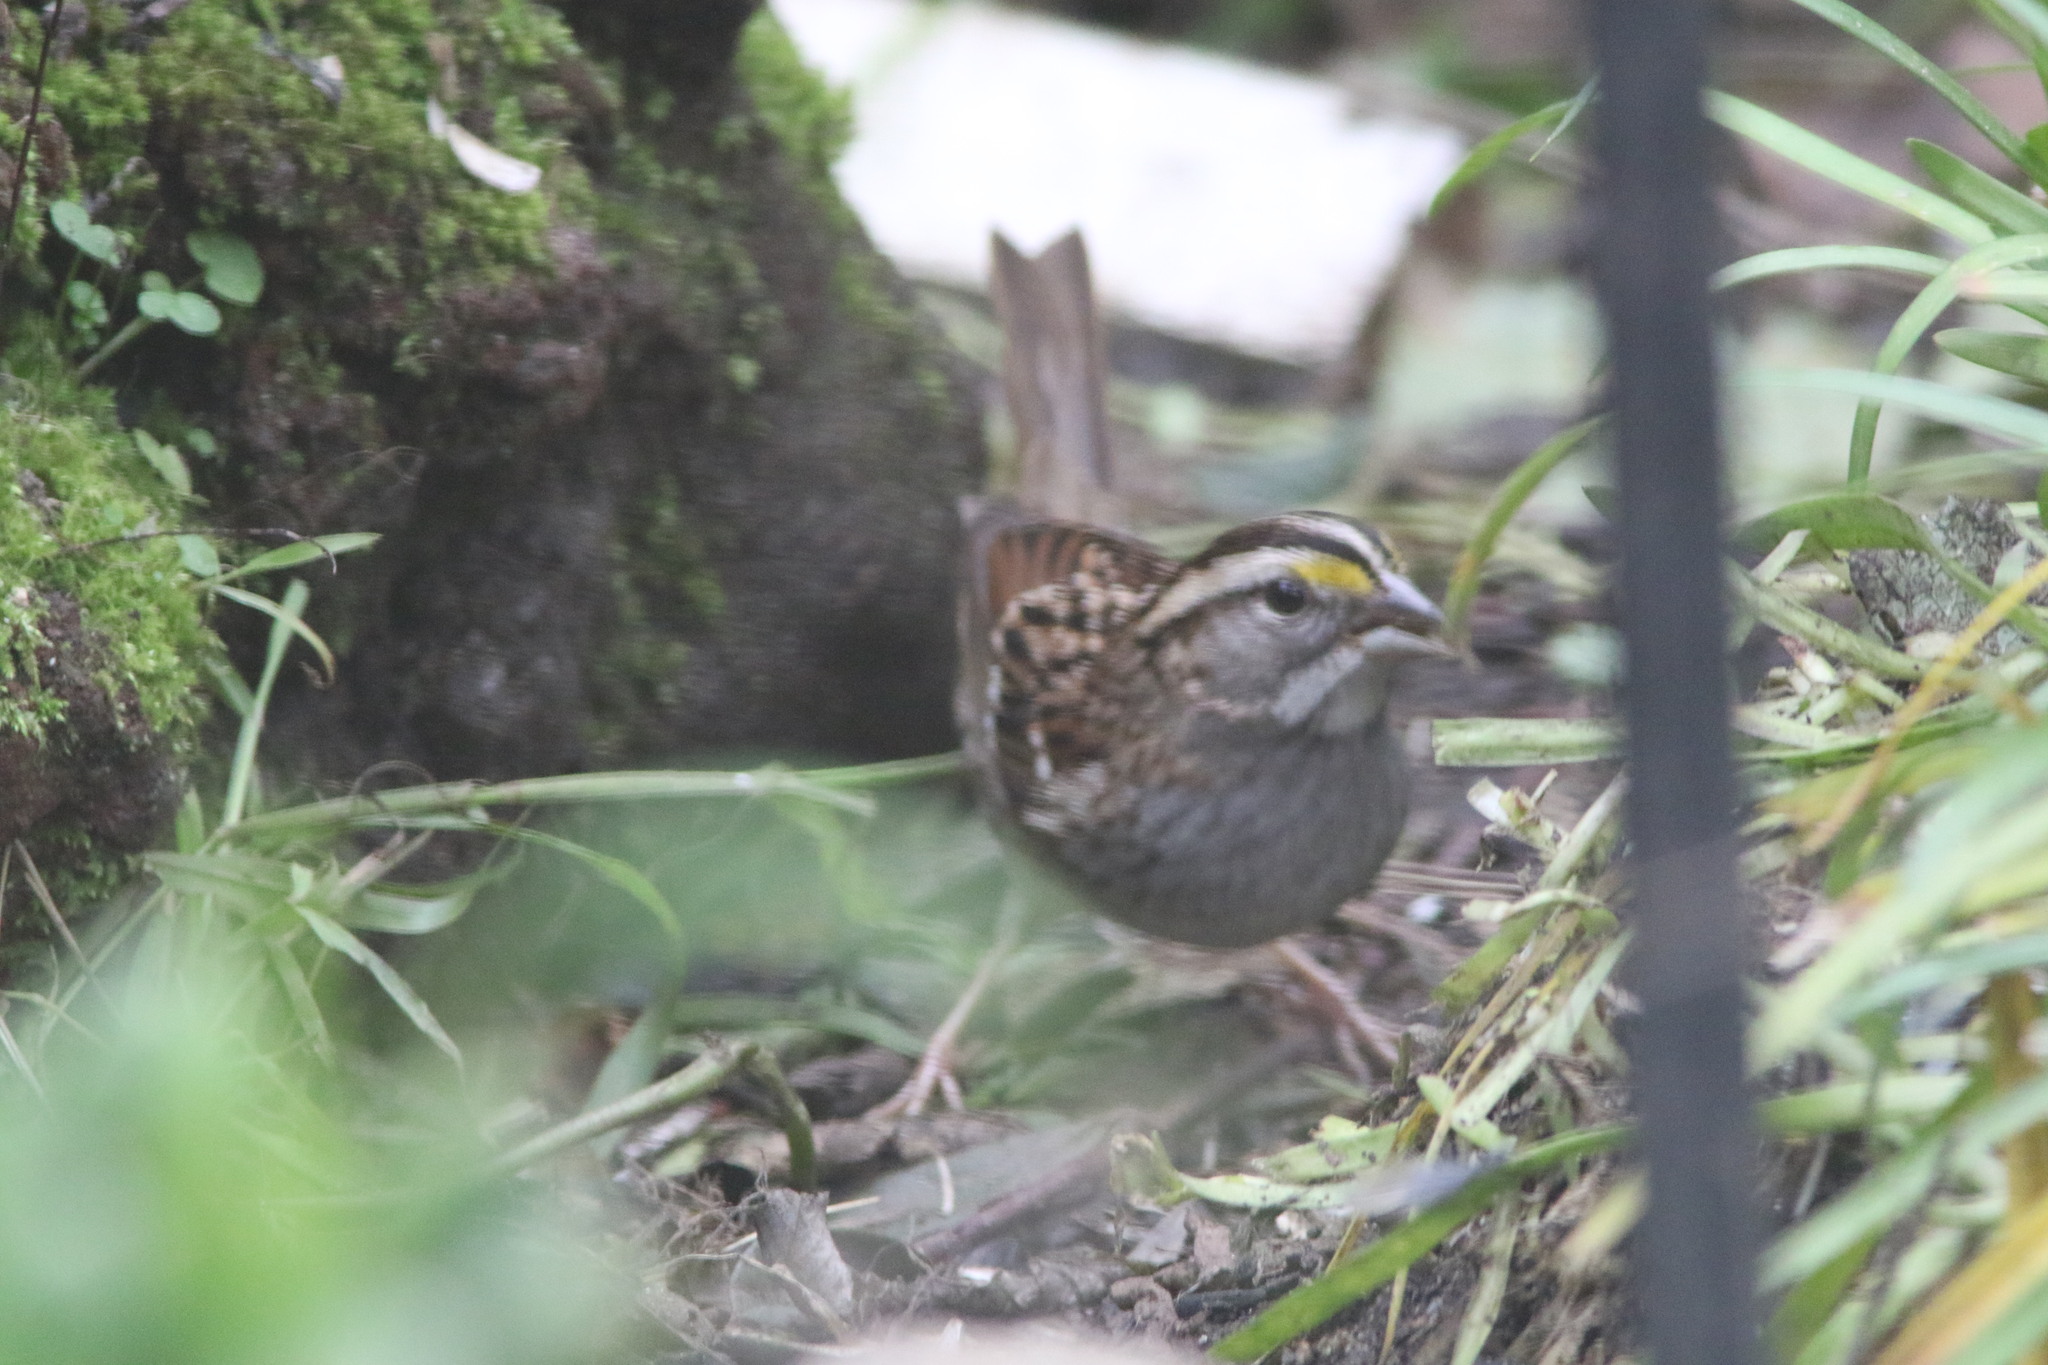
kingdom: Animalia
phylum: Chordata
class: Aves
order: Passeriformes
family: Passerellidae
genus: Zonotrichia
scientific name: Zonotrichia albicollis
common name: White-throated sparrow
